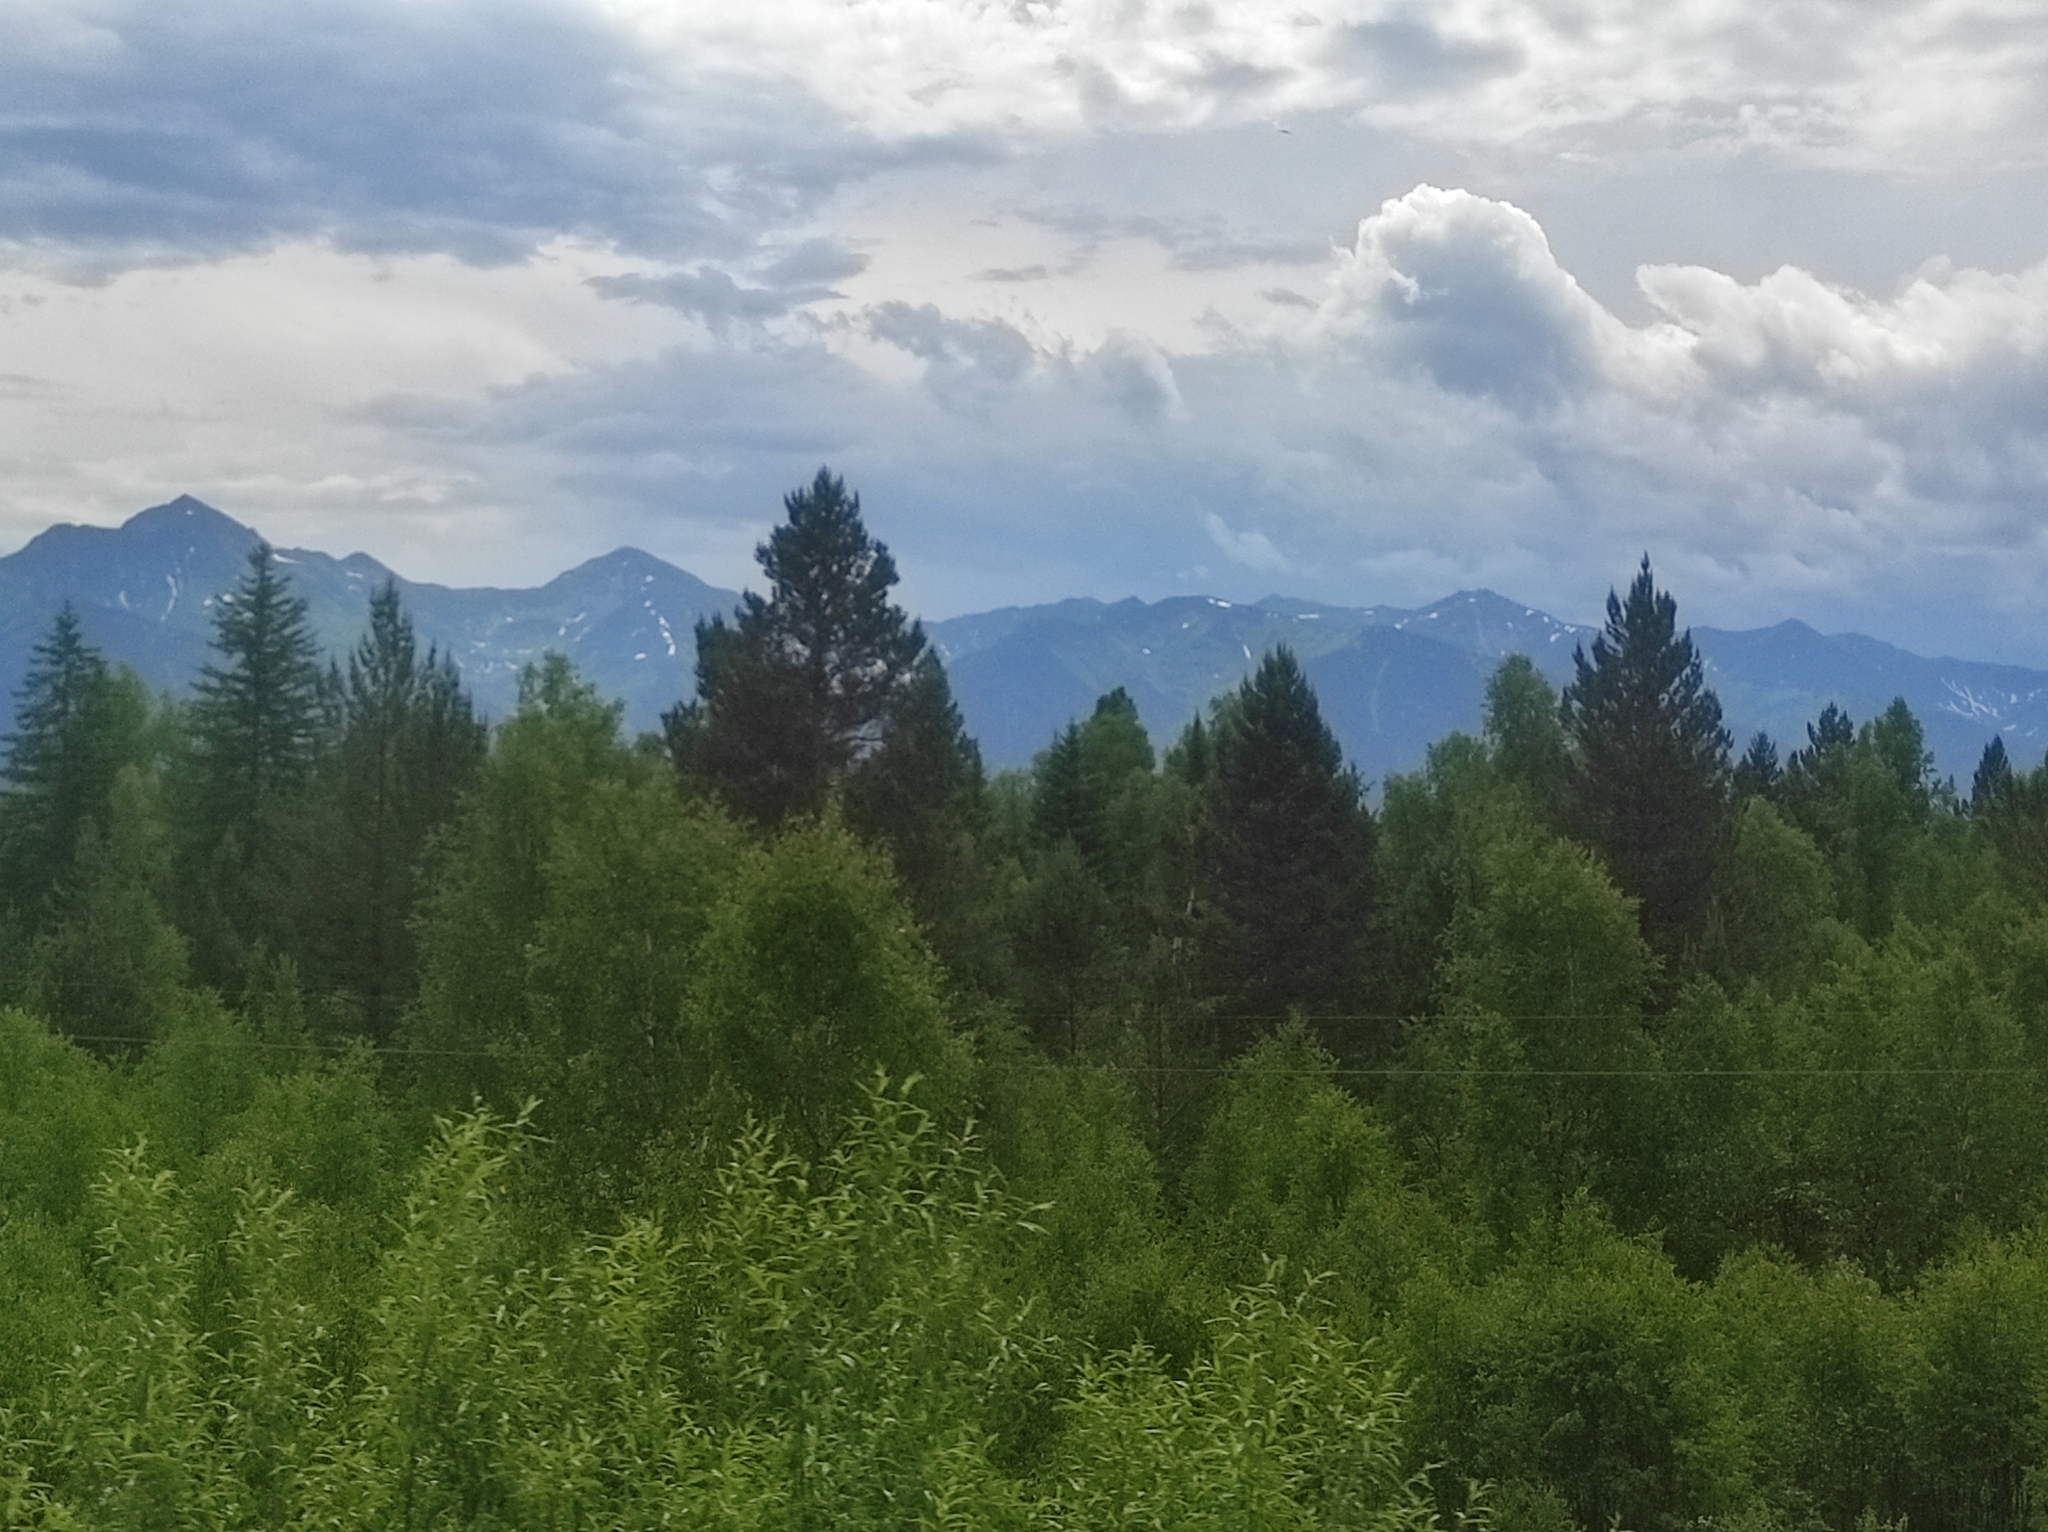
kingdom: Plantae
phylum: Tracheophyta
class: Pinopsida
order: Pinales
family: Pinaceae
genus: Pinus
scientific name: Pinus sylvestris
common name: Scots pine
